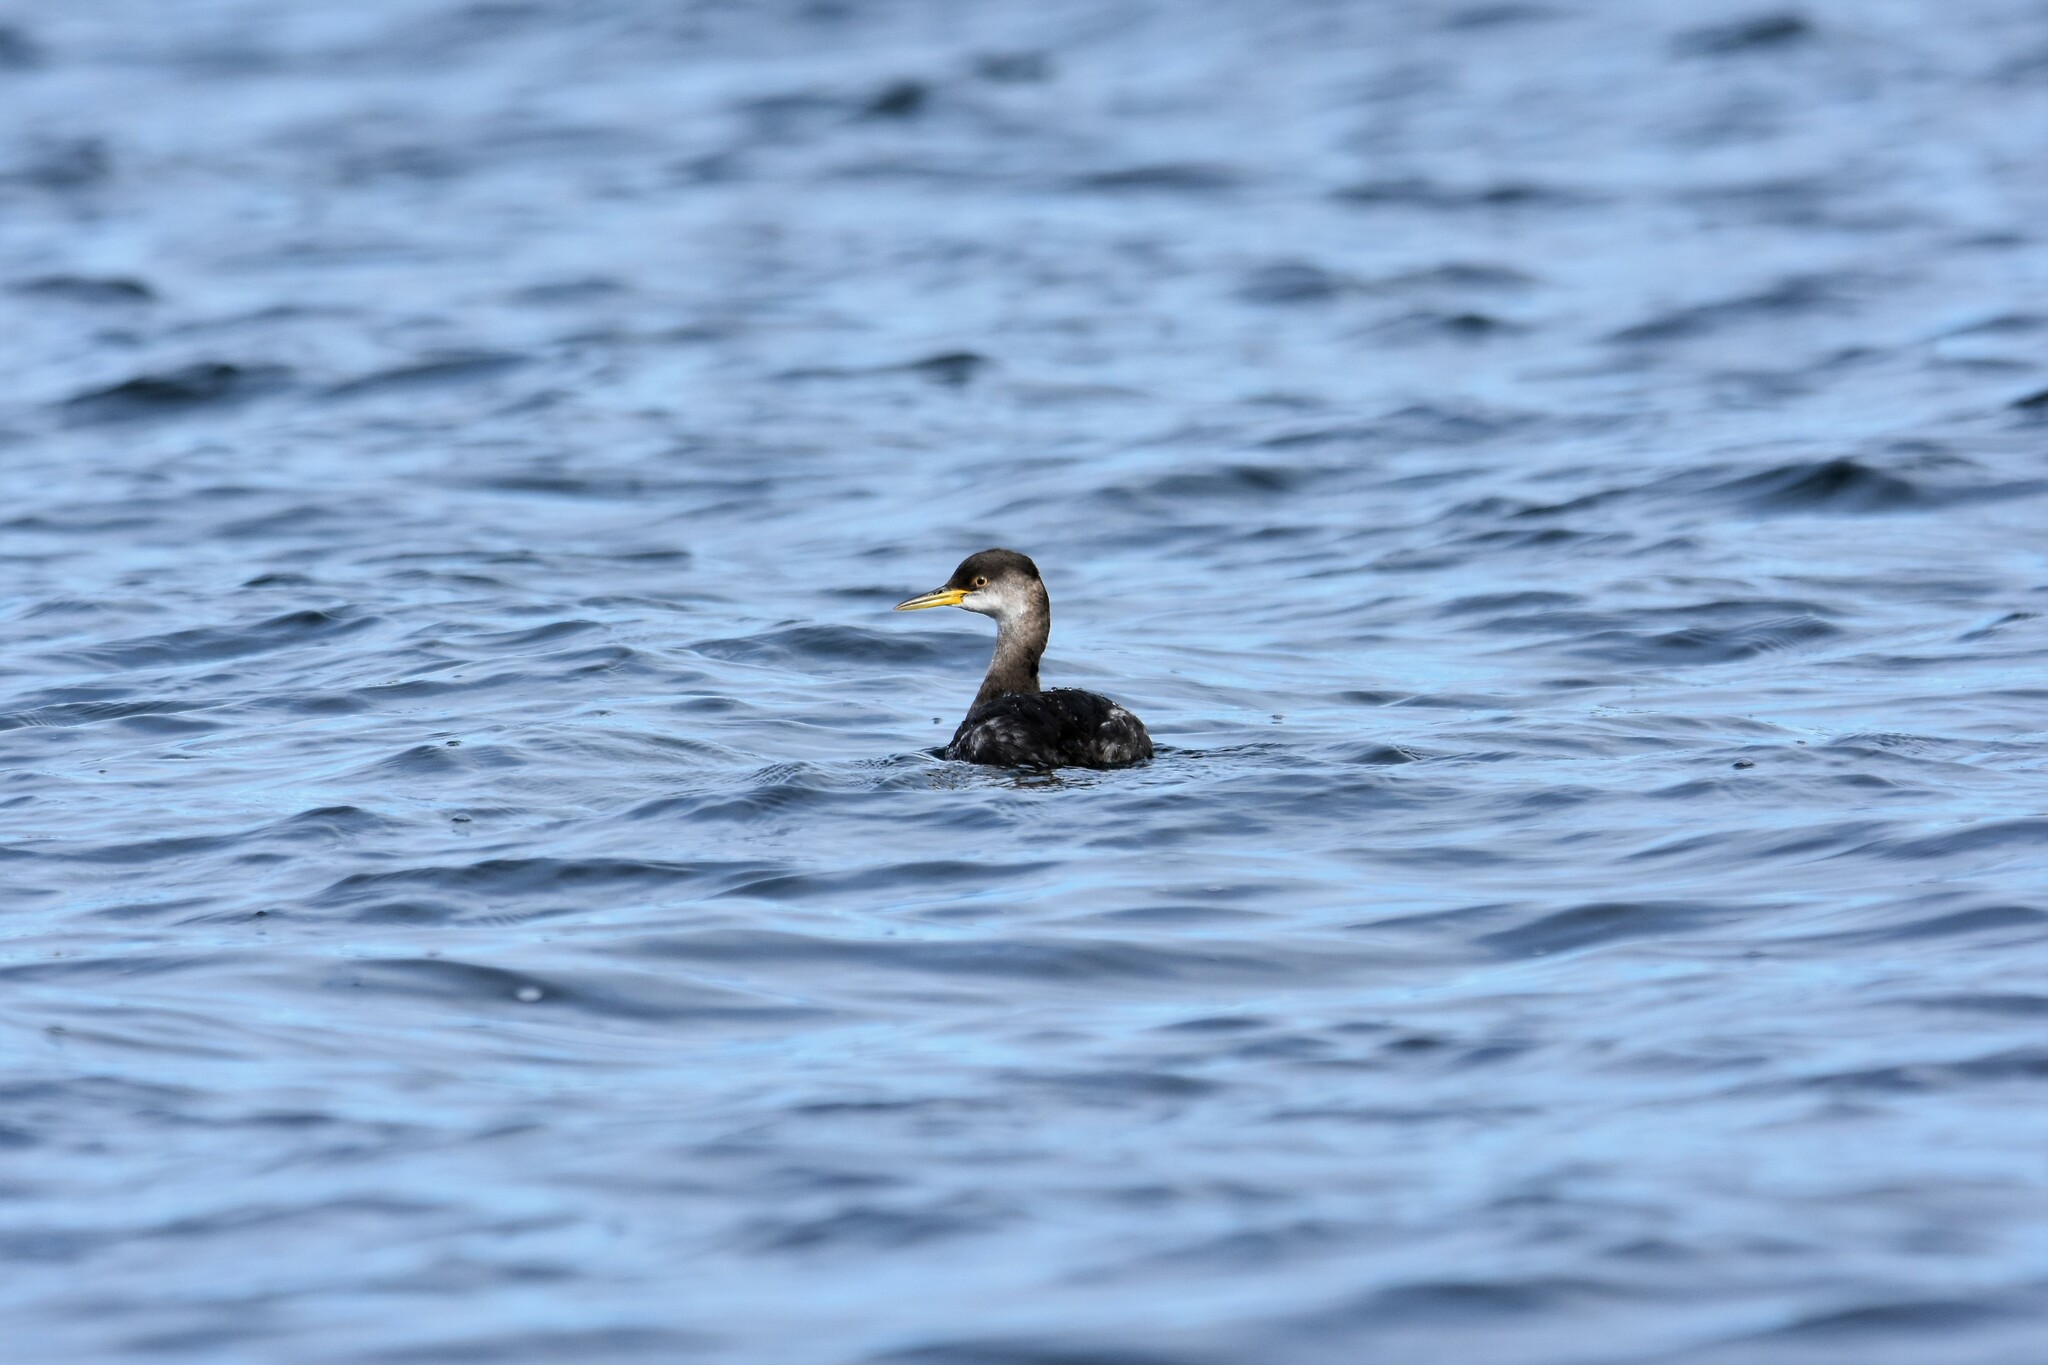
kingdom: Animalia
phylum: Chordata
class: Aves
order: Podicipediformes
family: Podicipedidae
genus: Podiceps
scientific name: Podiceps grisegena
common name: Red-necked grebe
